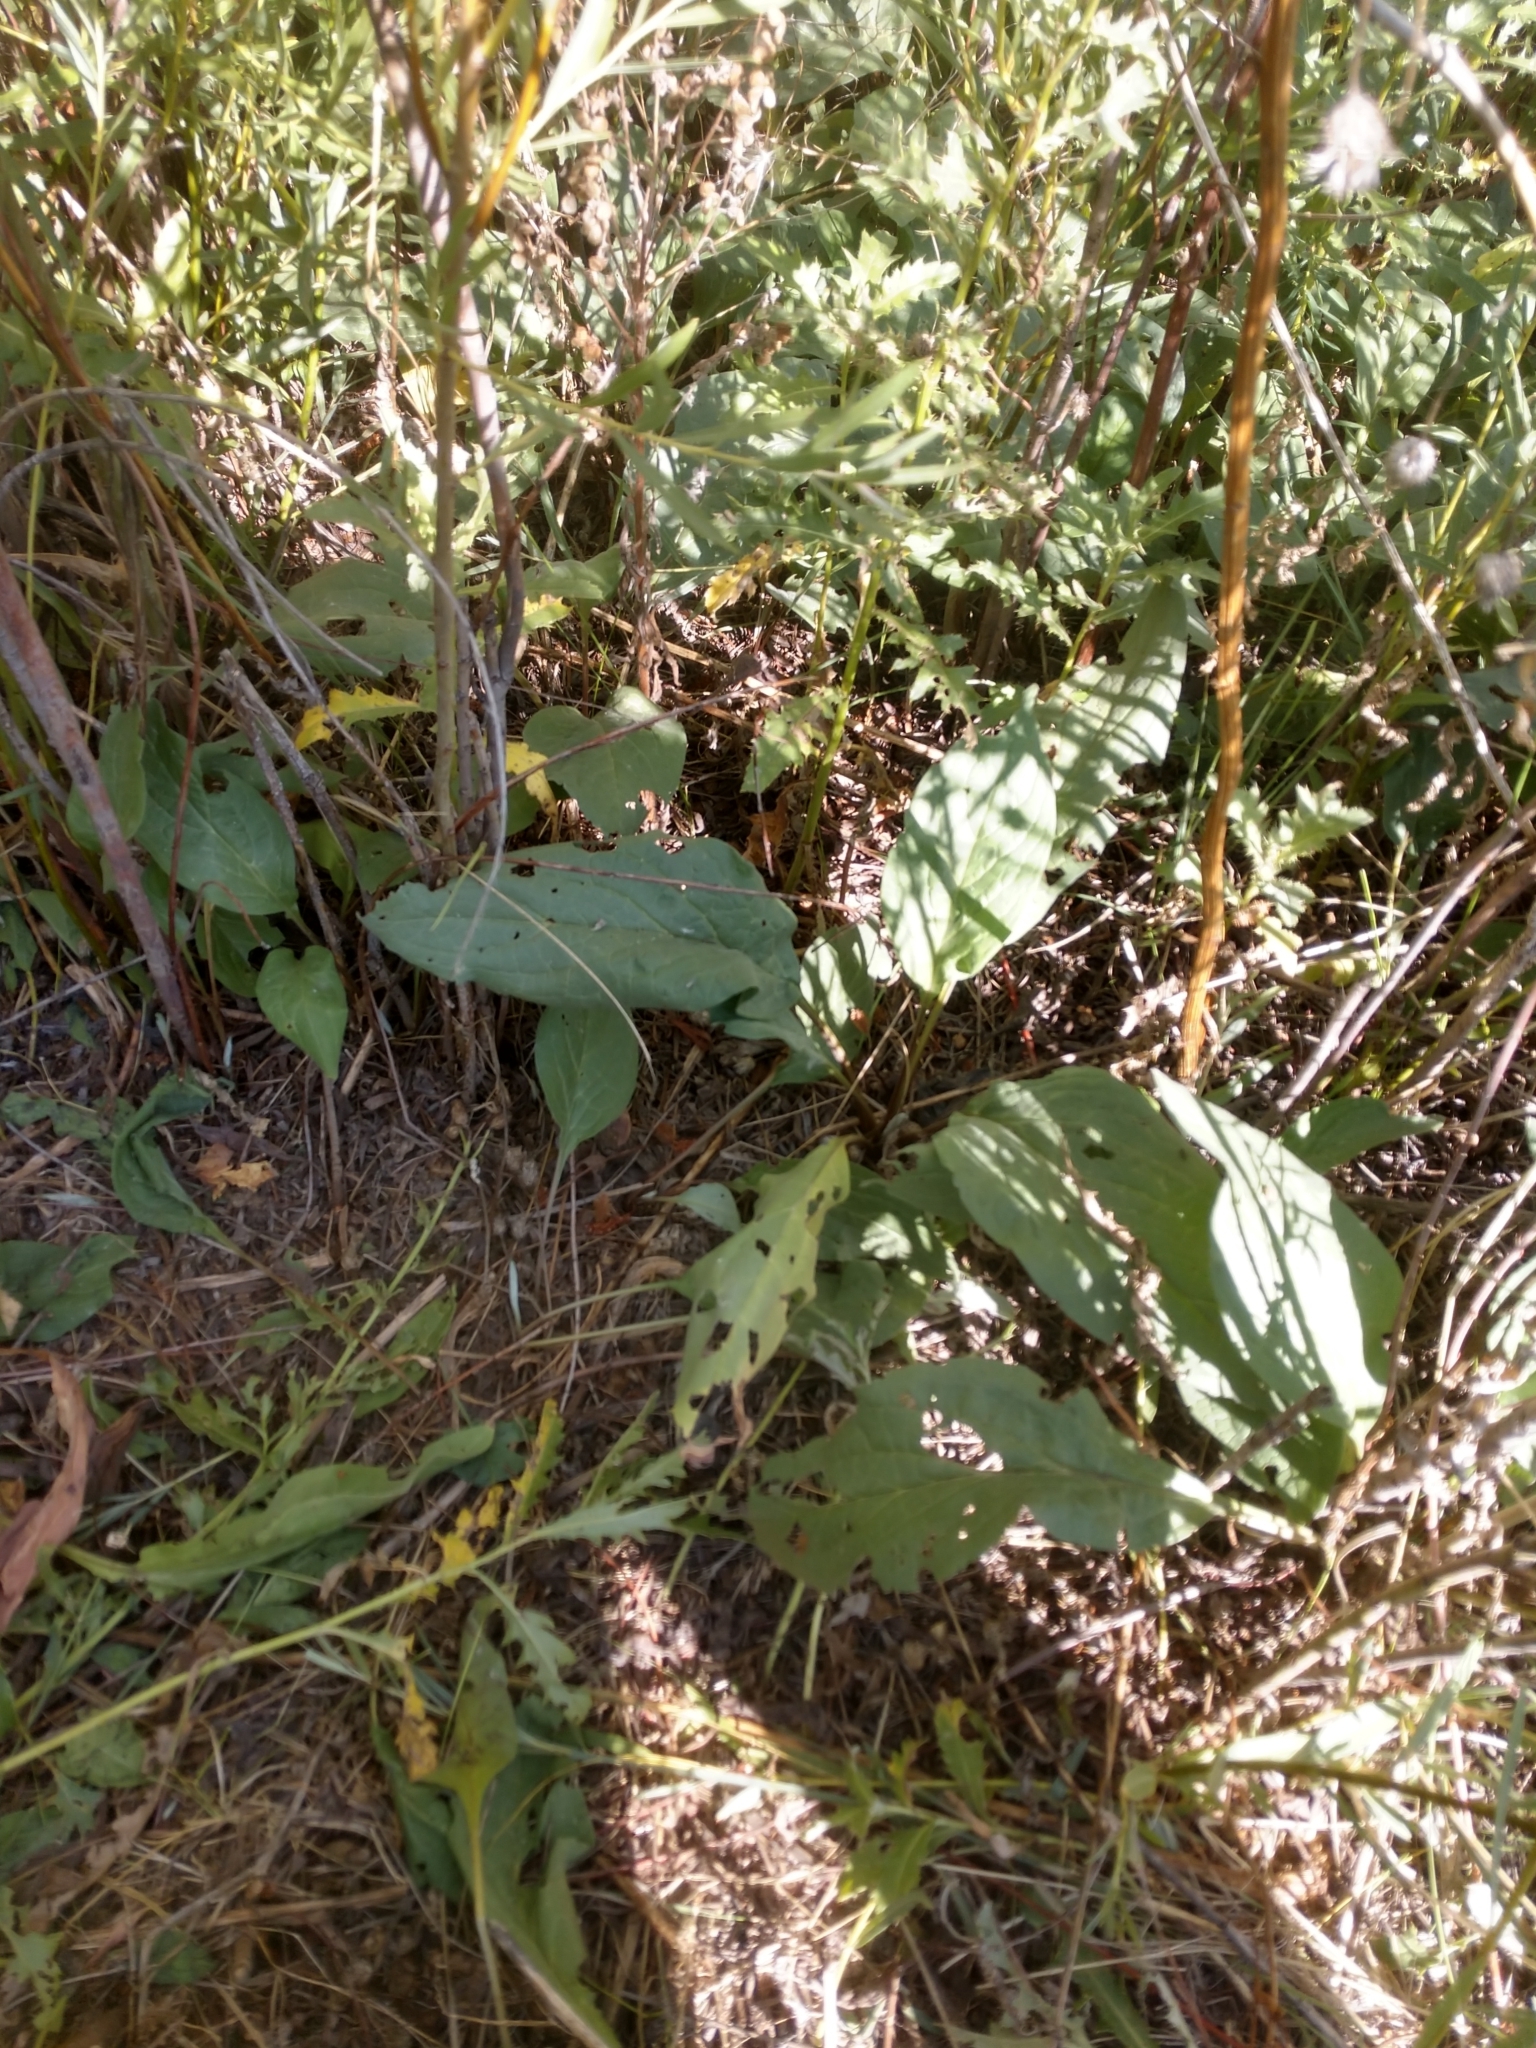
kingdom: Plantae
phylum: Tracheophyta
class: Magnoliopsida
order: Boraginales
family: Boraginaceae
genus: Cynoglossum
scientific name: Cynoglossum officinale
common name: Hound's-tongue
